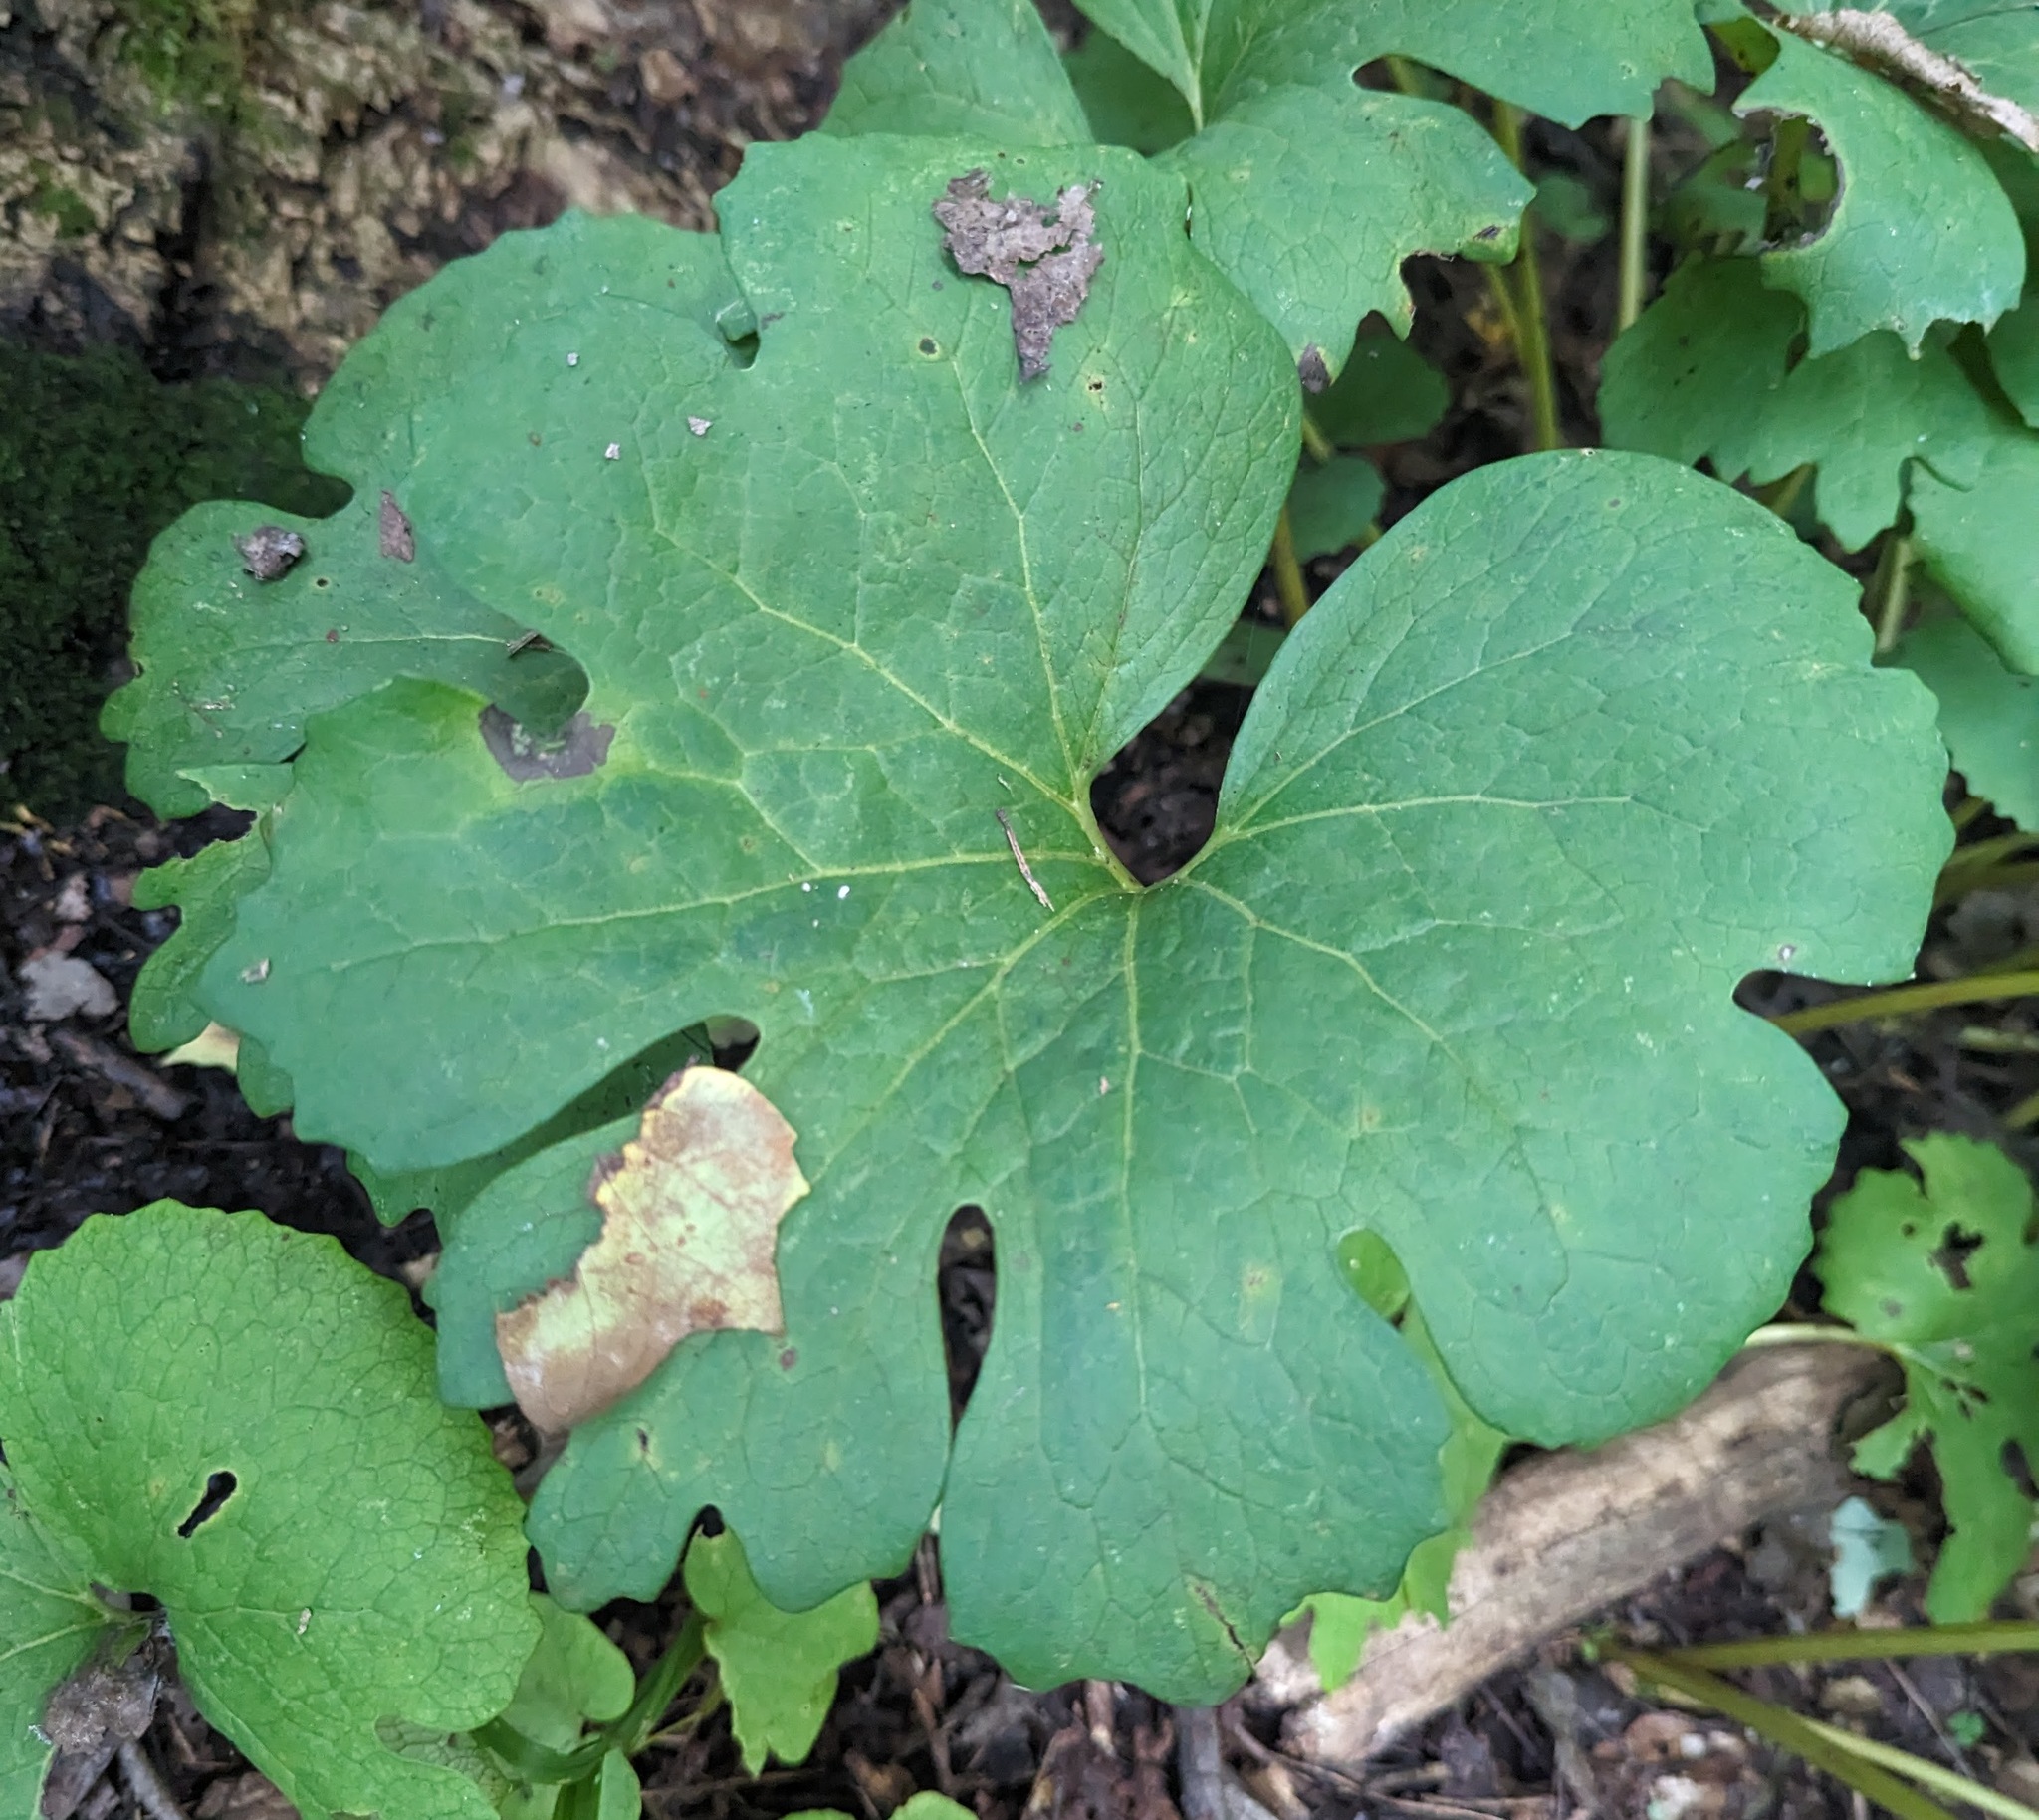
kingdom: Plantae
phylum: Tracheophyta
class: Magnoliopsida
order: Ranunculales
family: Papaveraceae
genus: Sanguinaria
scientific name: Sanguinaria canadensis
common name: Bloodroot
